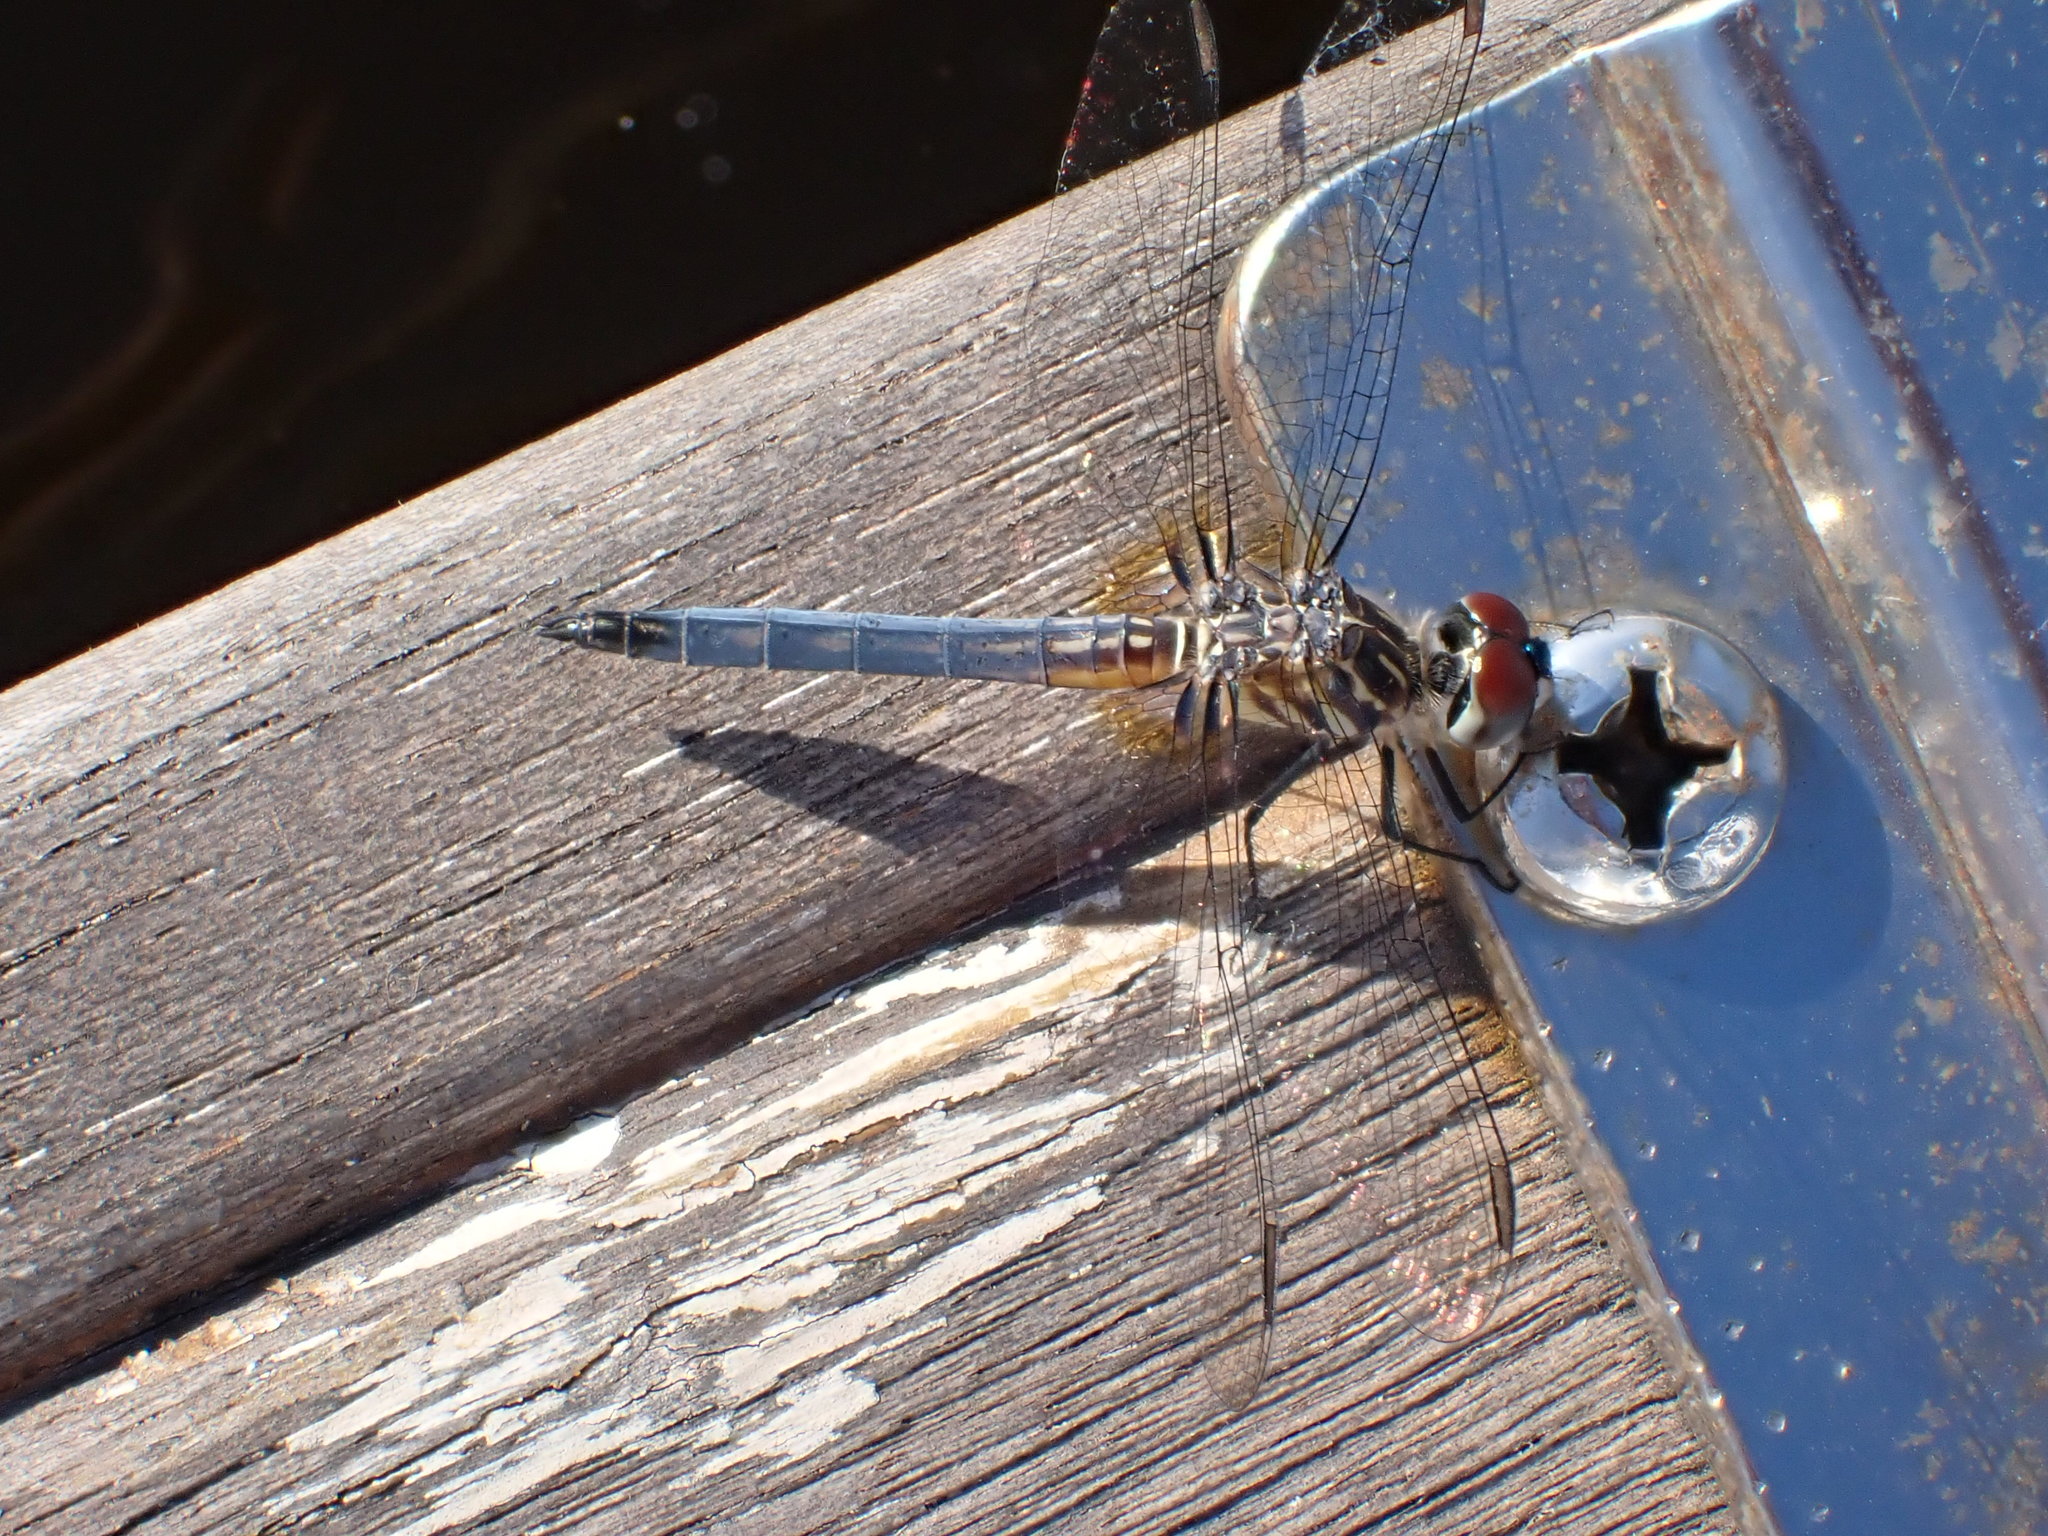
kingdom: Animalia
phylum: Arthropoda
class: Insecta
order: Odonata
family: Libellulidae
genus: Pachydiplax
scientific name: Pachydiplax longipennis
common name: Blue dasher
